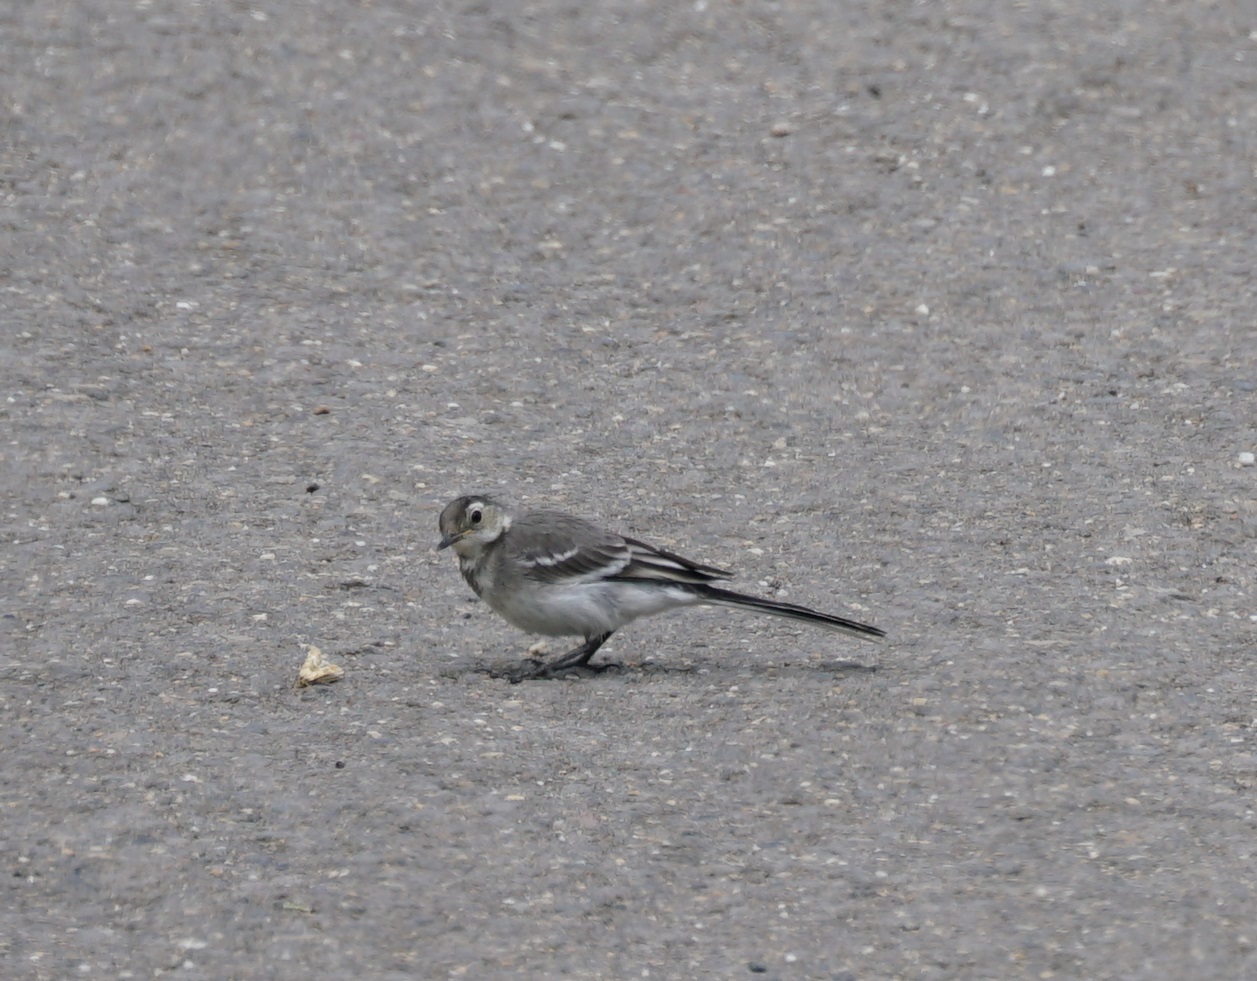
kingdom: Animalia
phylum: Chordata
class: Aves
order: Passeriformes
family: Motacillidae
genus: Motacilla
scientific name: Motacilla alba
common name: White wagtail
